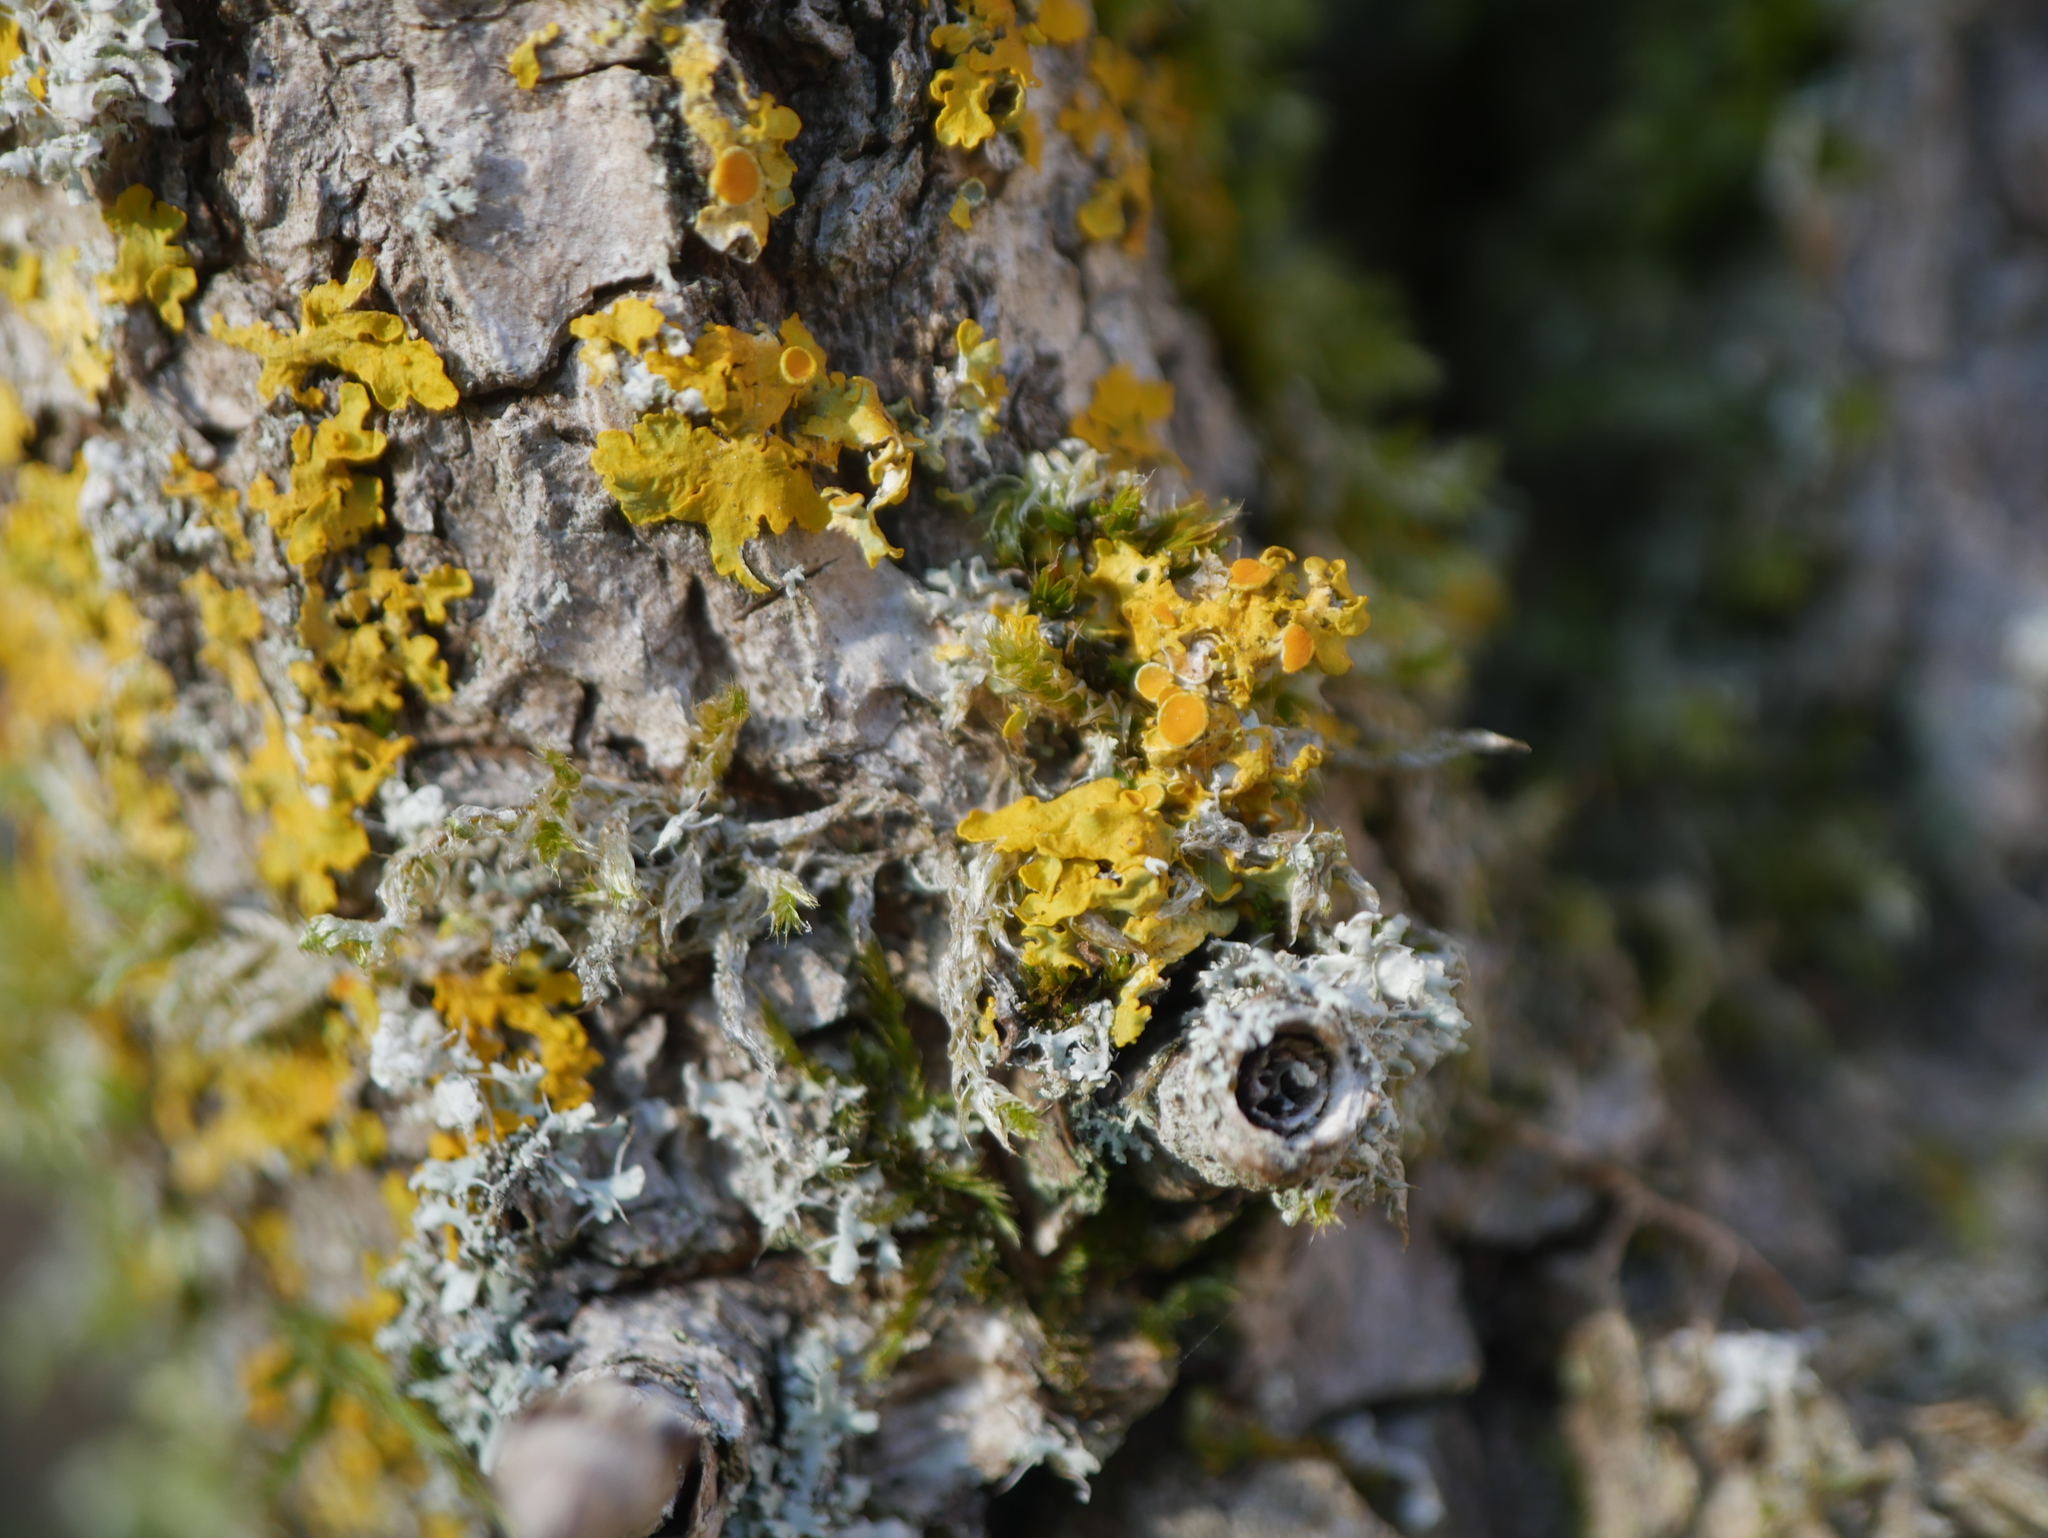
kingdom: Fungi
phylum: Ascomycota
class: Lecanoromycetes
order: Teloschistales
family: Teloschistaceae
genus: Xanthoria
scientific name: Xanthoria parietina
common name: Common orange lichen
